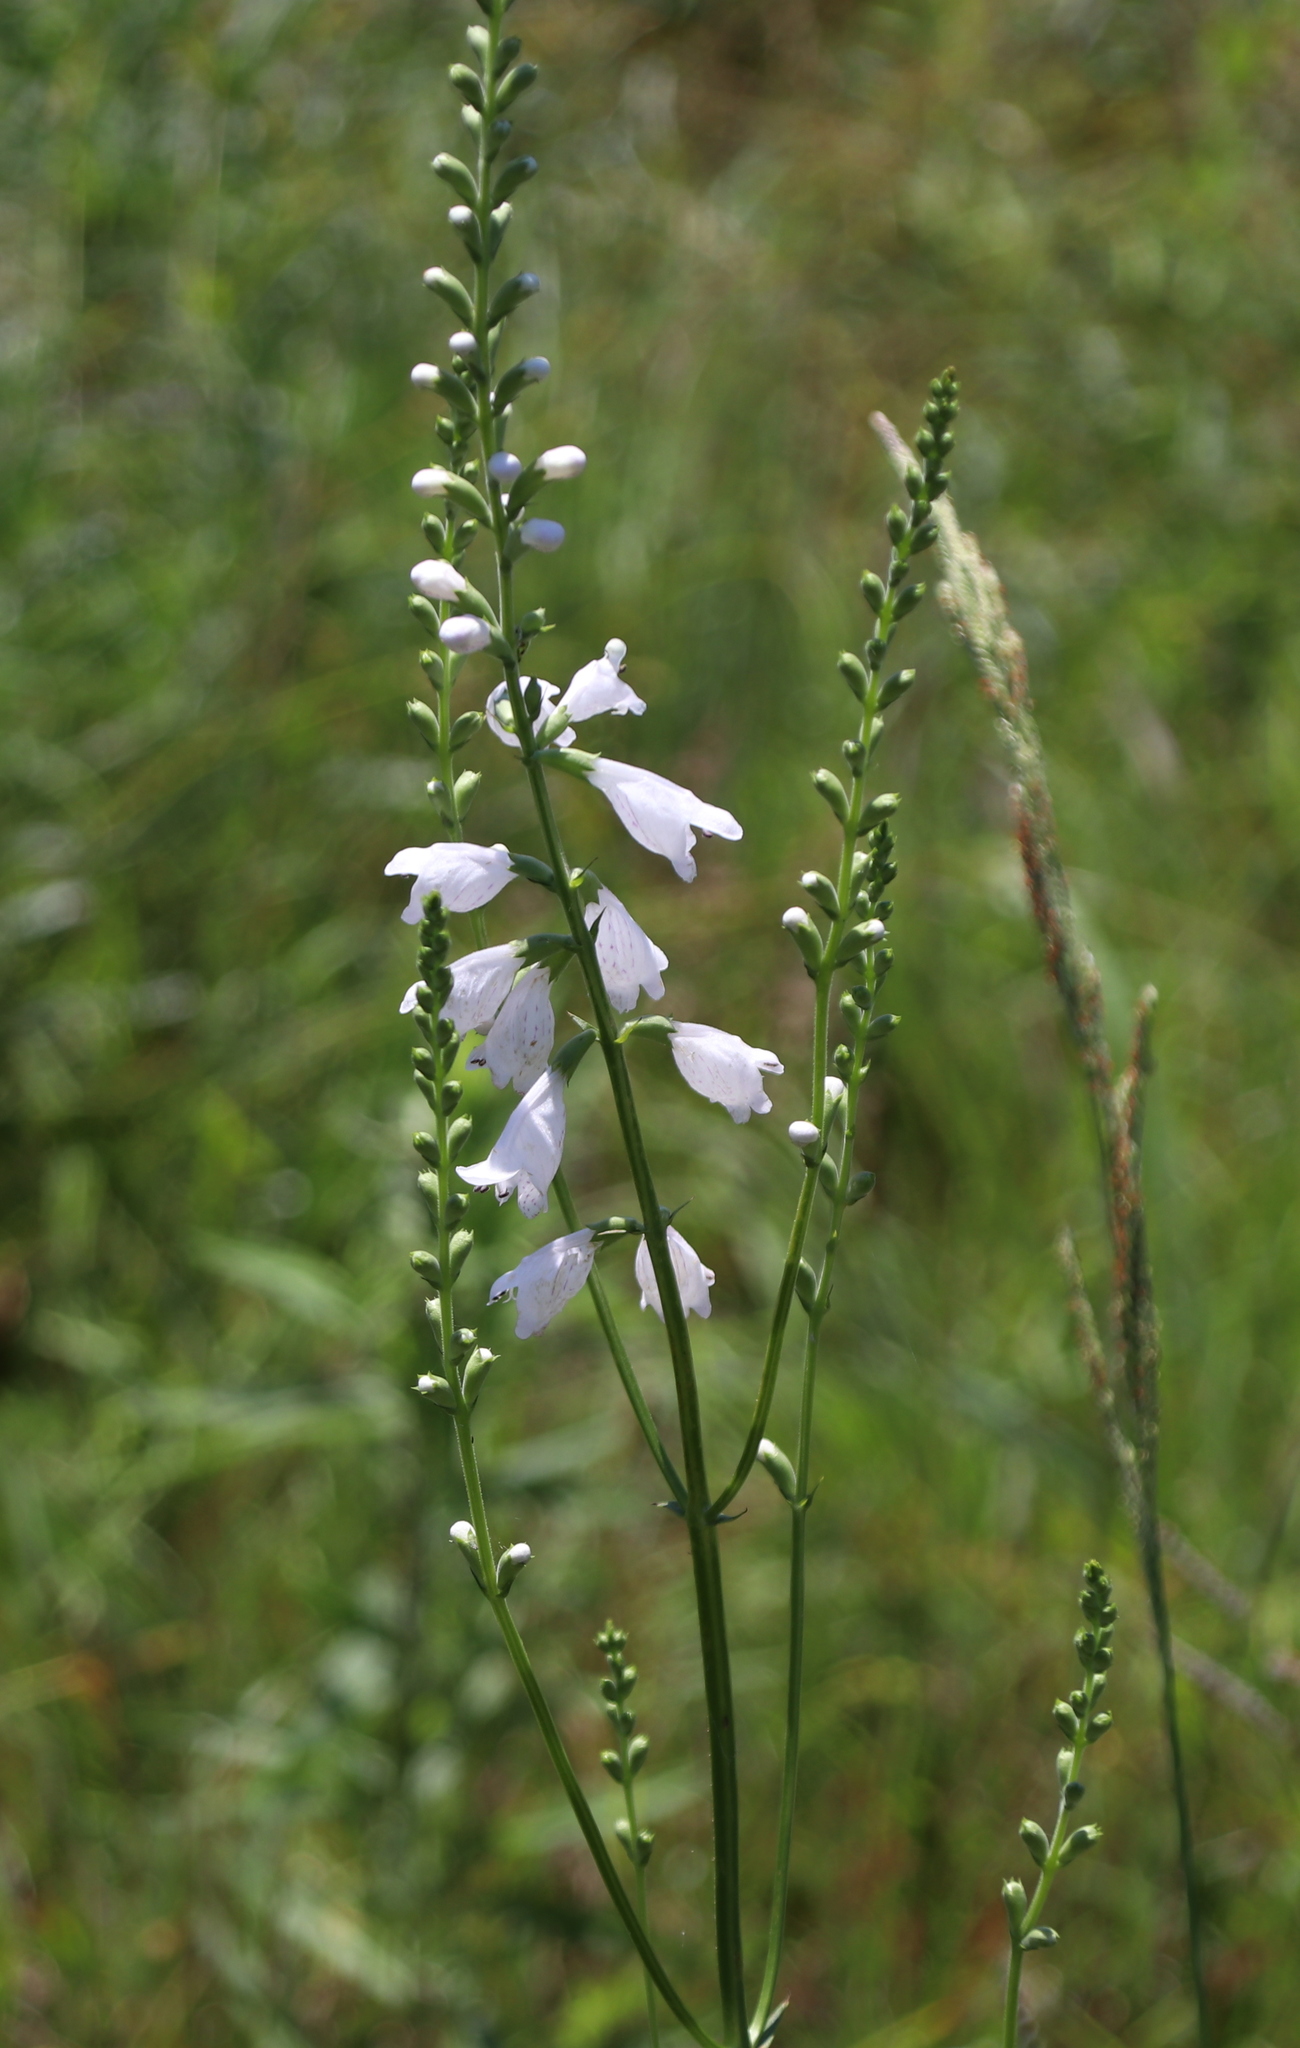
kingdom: Plantae
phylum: Tracheophyta
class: Magnoliopsida
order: Lamiales
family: Lamiaceae
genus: Physostegia
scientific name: Physostegia angustifolia
